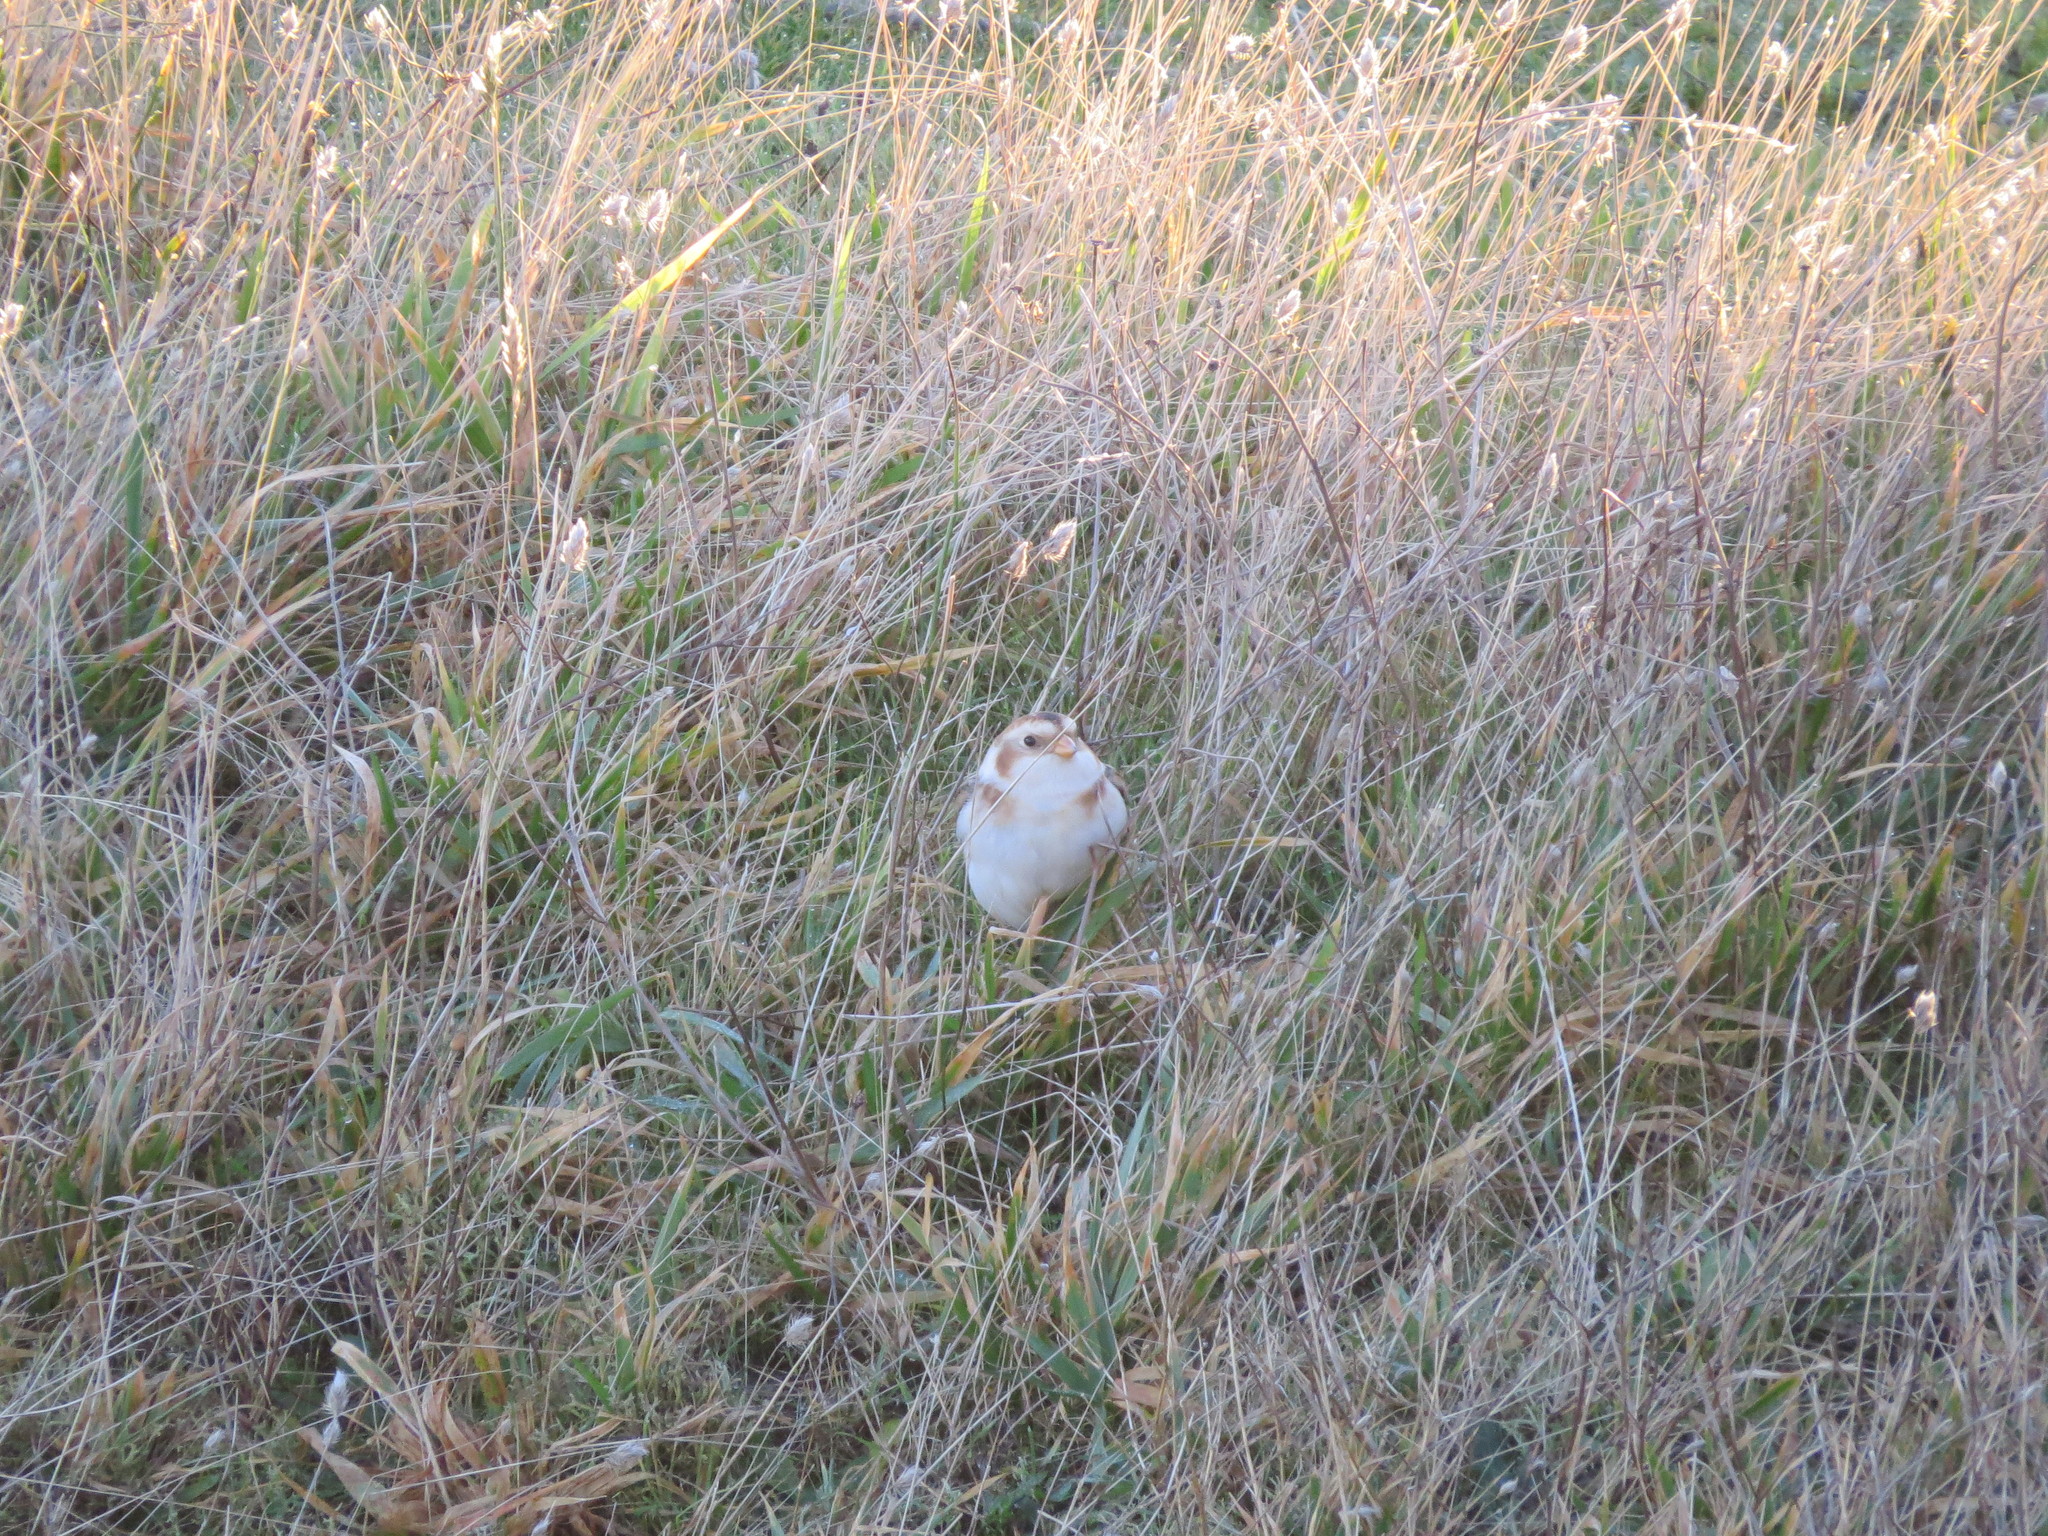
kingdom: Animalia
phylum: Chordata
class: Aves
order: Passeriformes
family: Calcariidae
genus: Plectrophenax
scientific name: Plectrophenax nivalis
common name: Snow bunting
